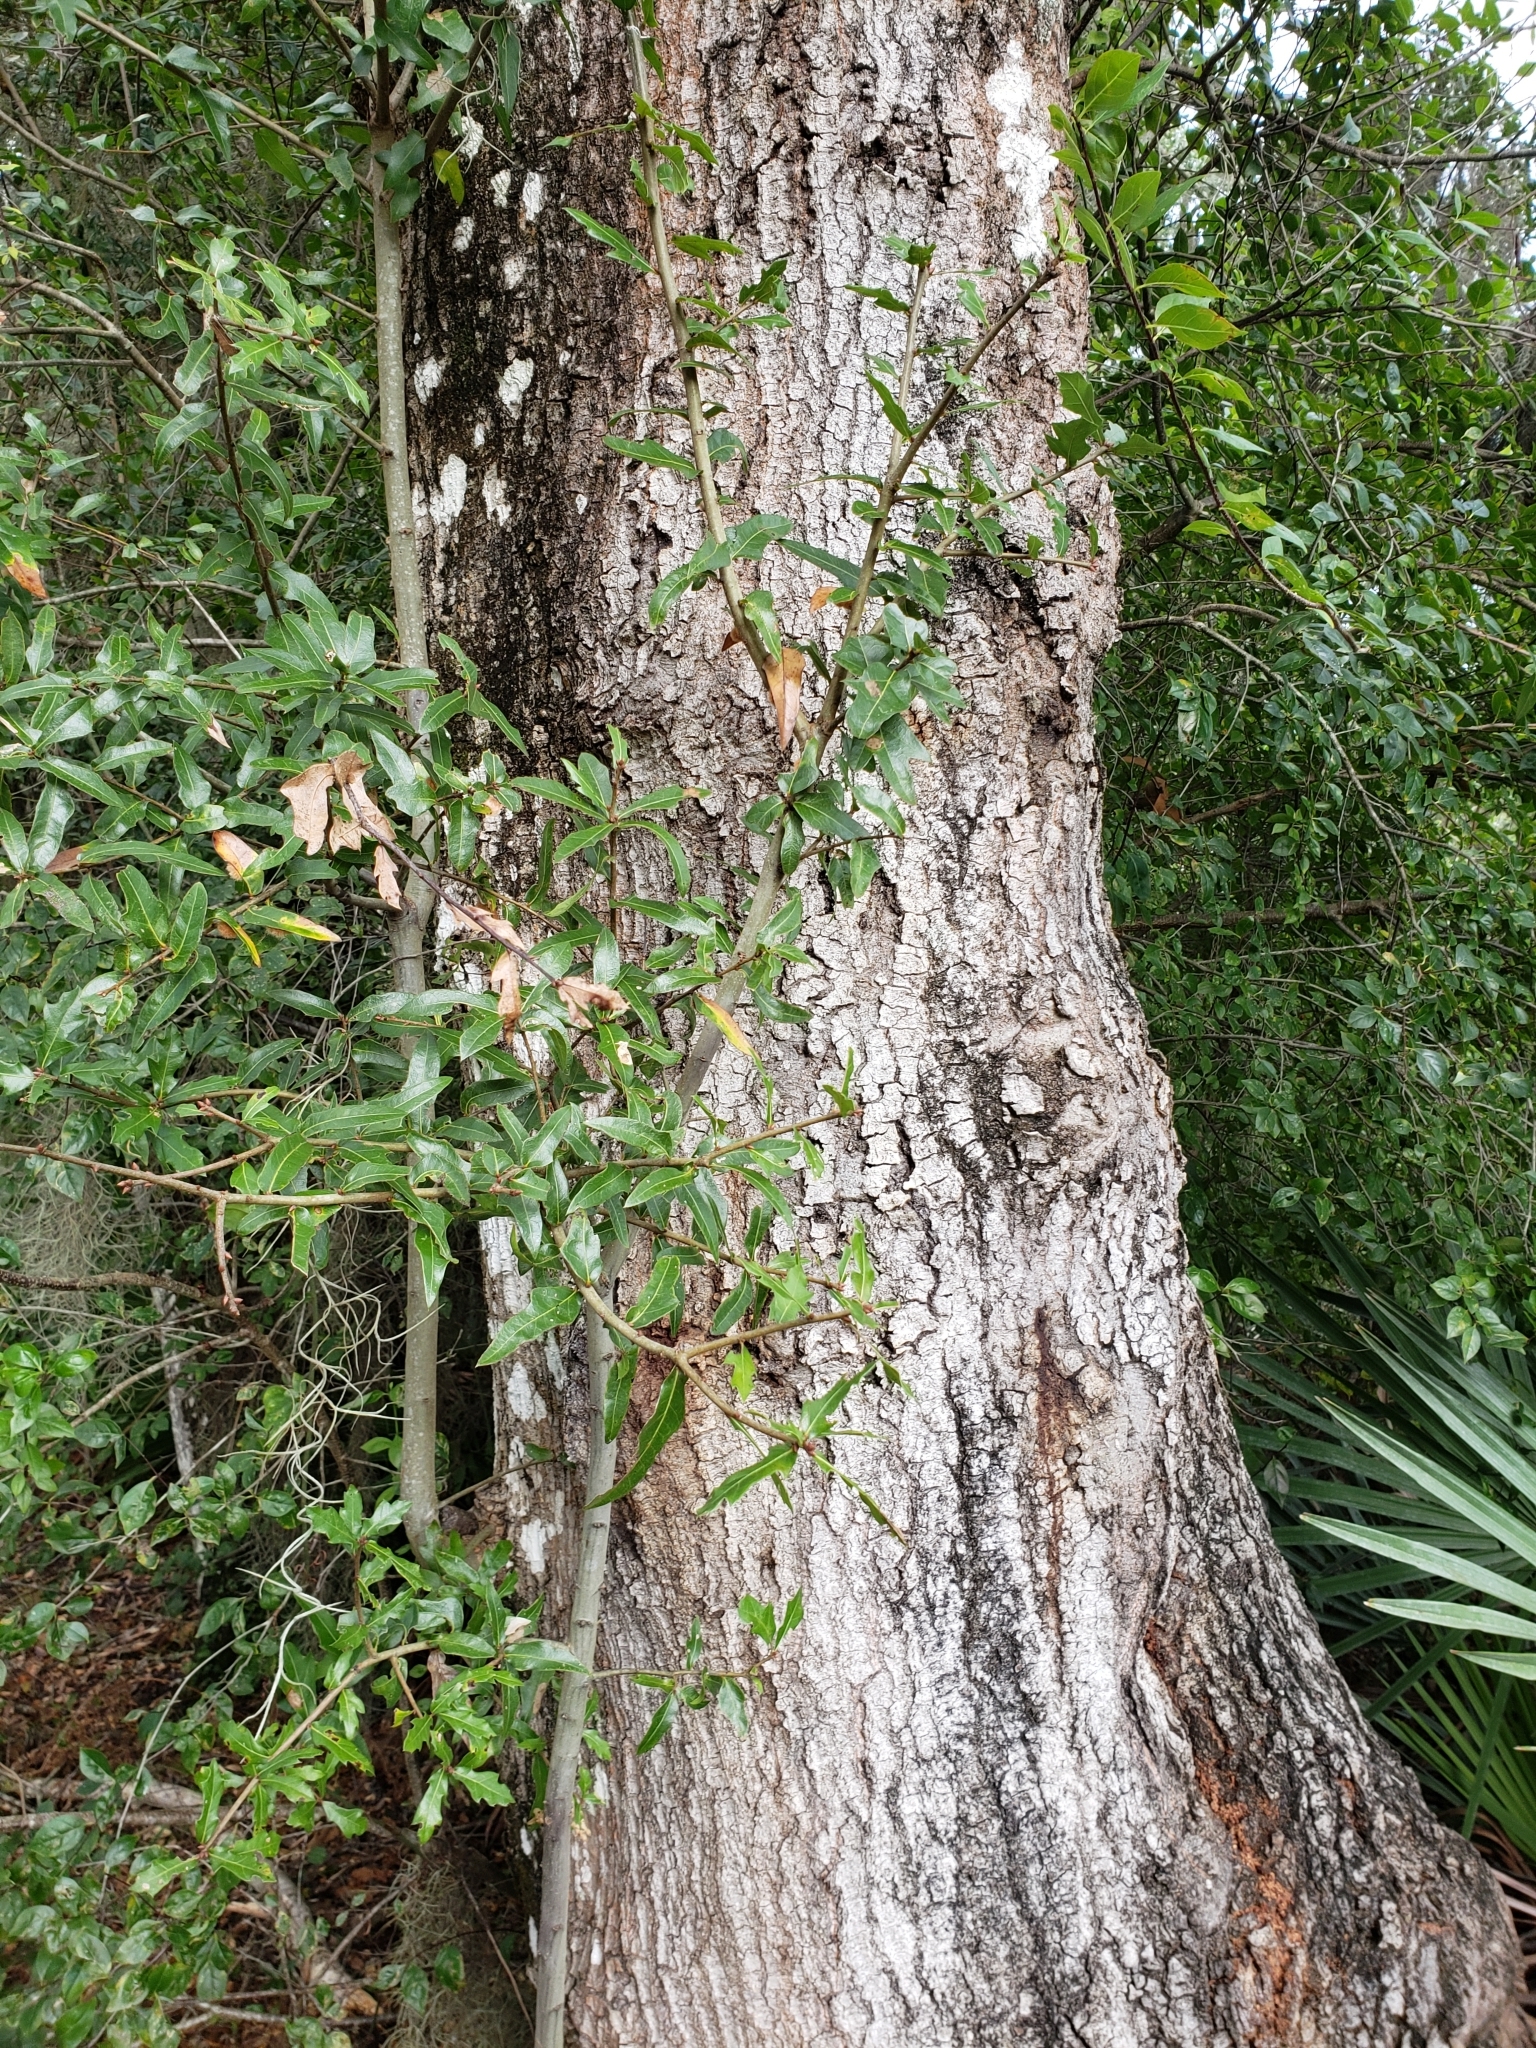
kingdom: Plantae
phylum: Tracheophyta
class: Magnoliopsida
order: Fagales
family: Fagaceae
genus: Quercus
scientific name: Quercus hemisphaerica
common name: Darlington oak
